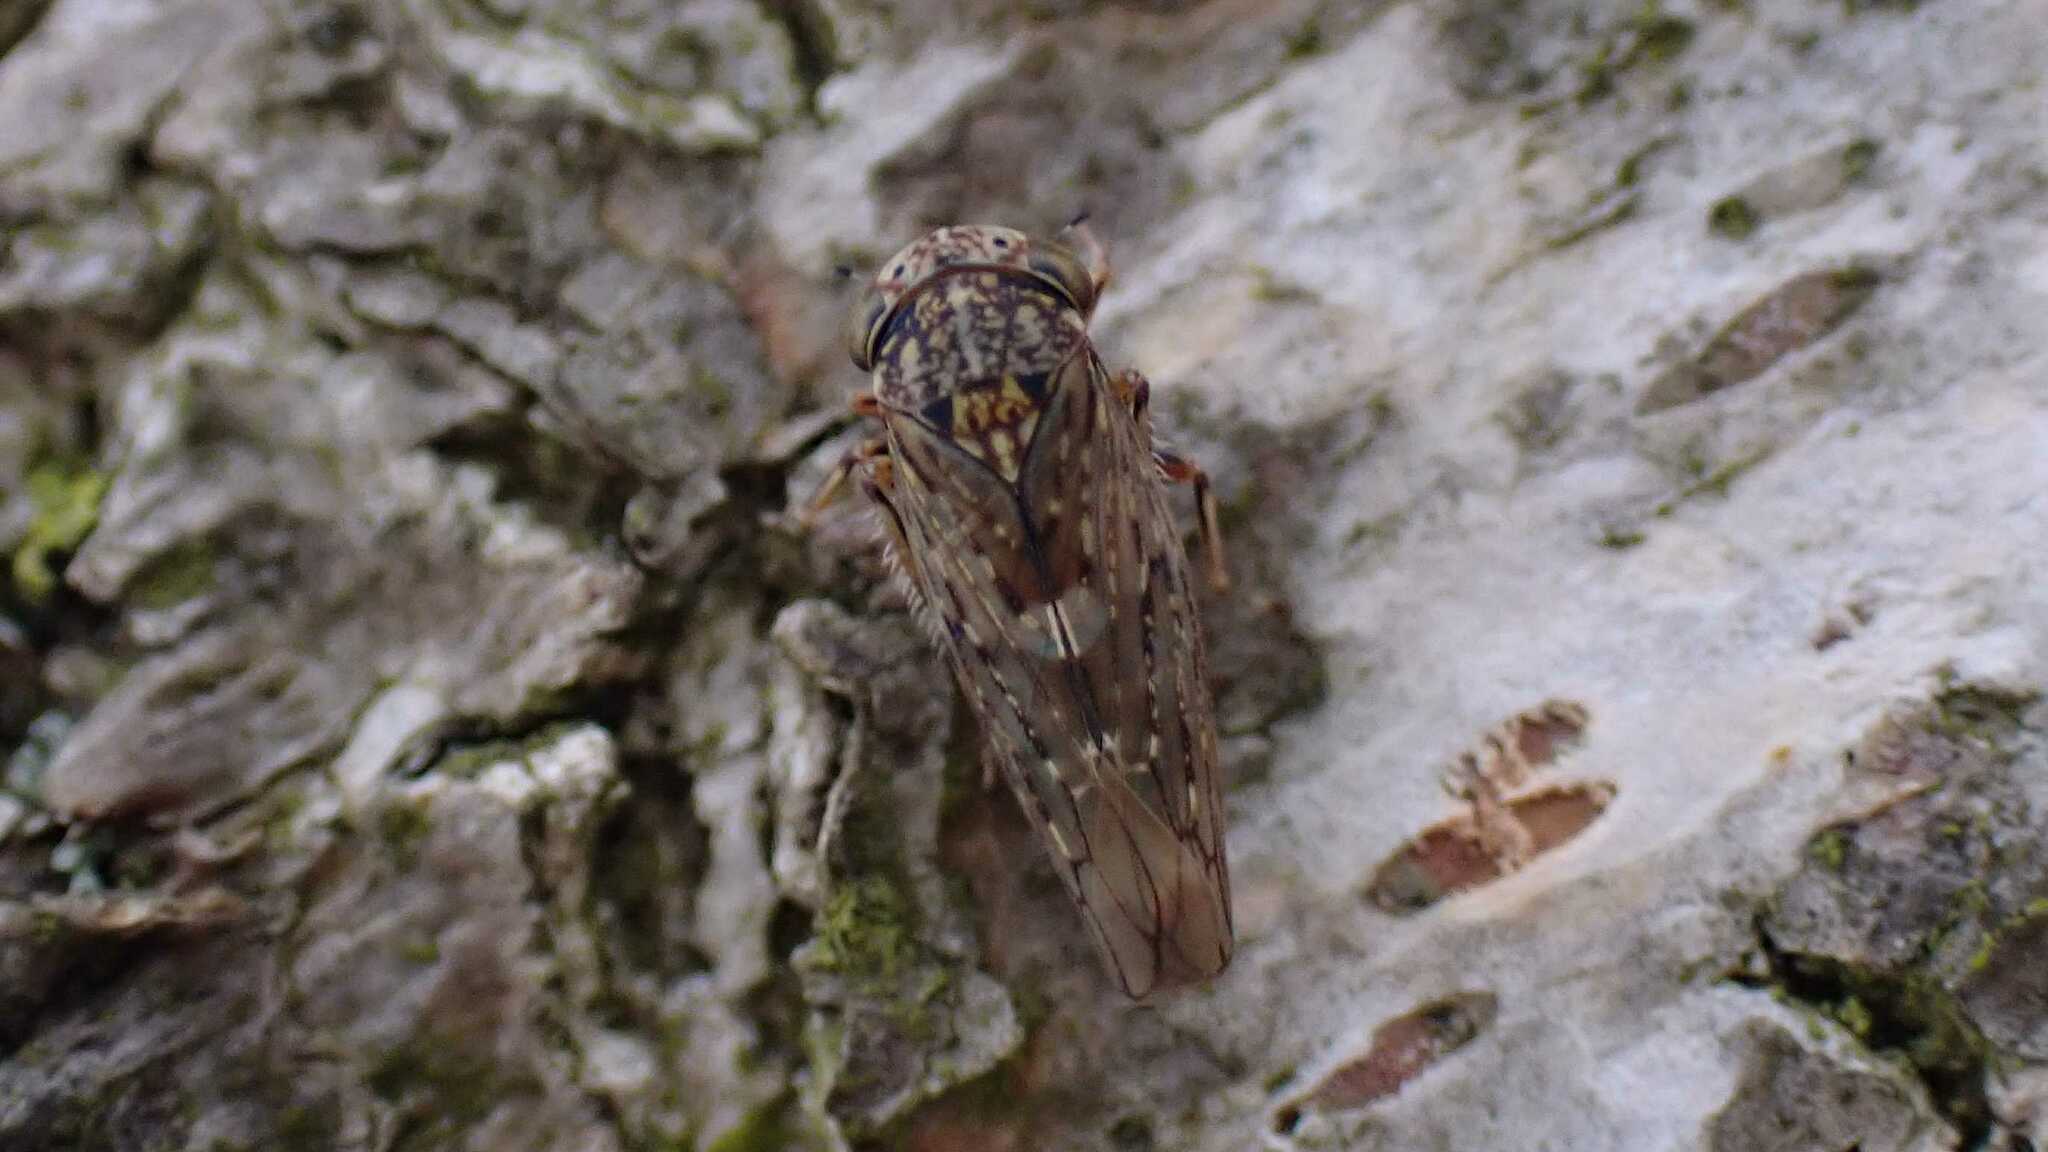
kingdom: Animalia
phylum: Arthropoda
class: Insecta
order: Hemiptera
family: Cicadellidae
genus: Acericerus
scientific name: Acericerus vittifrons
